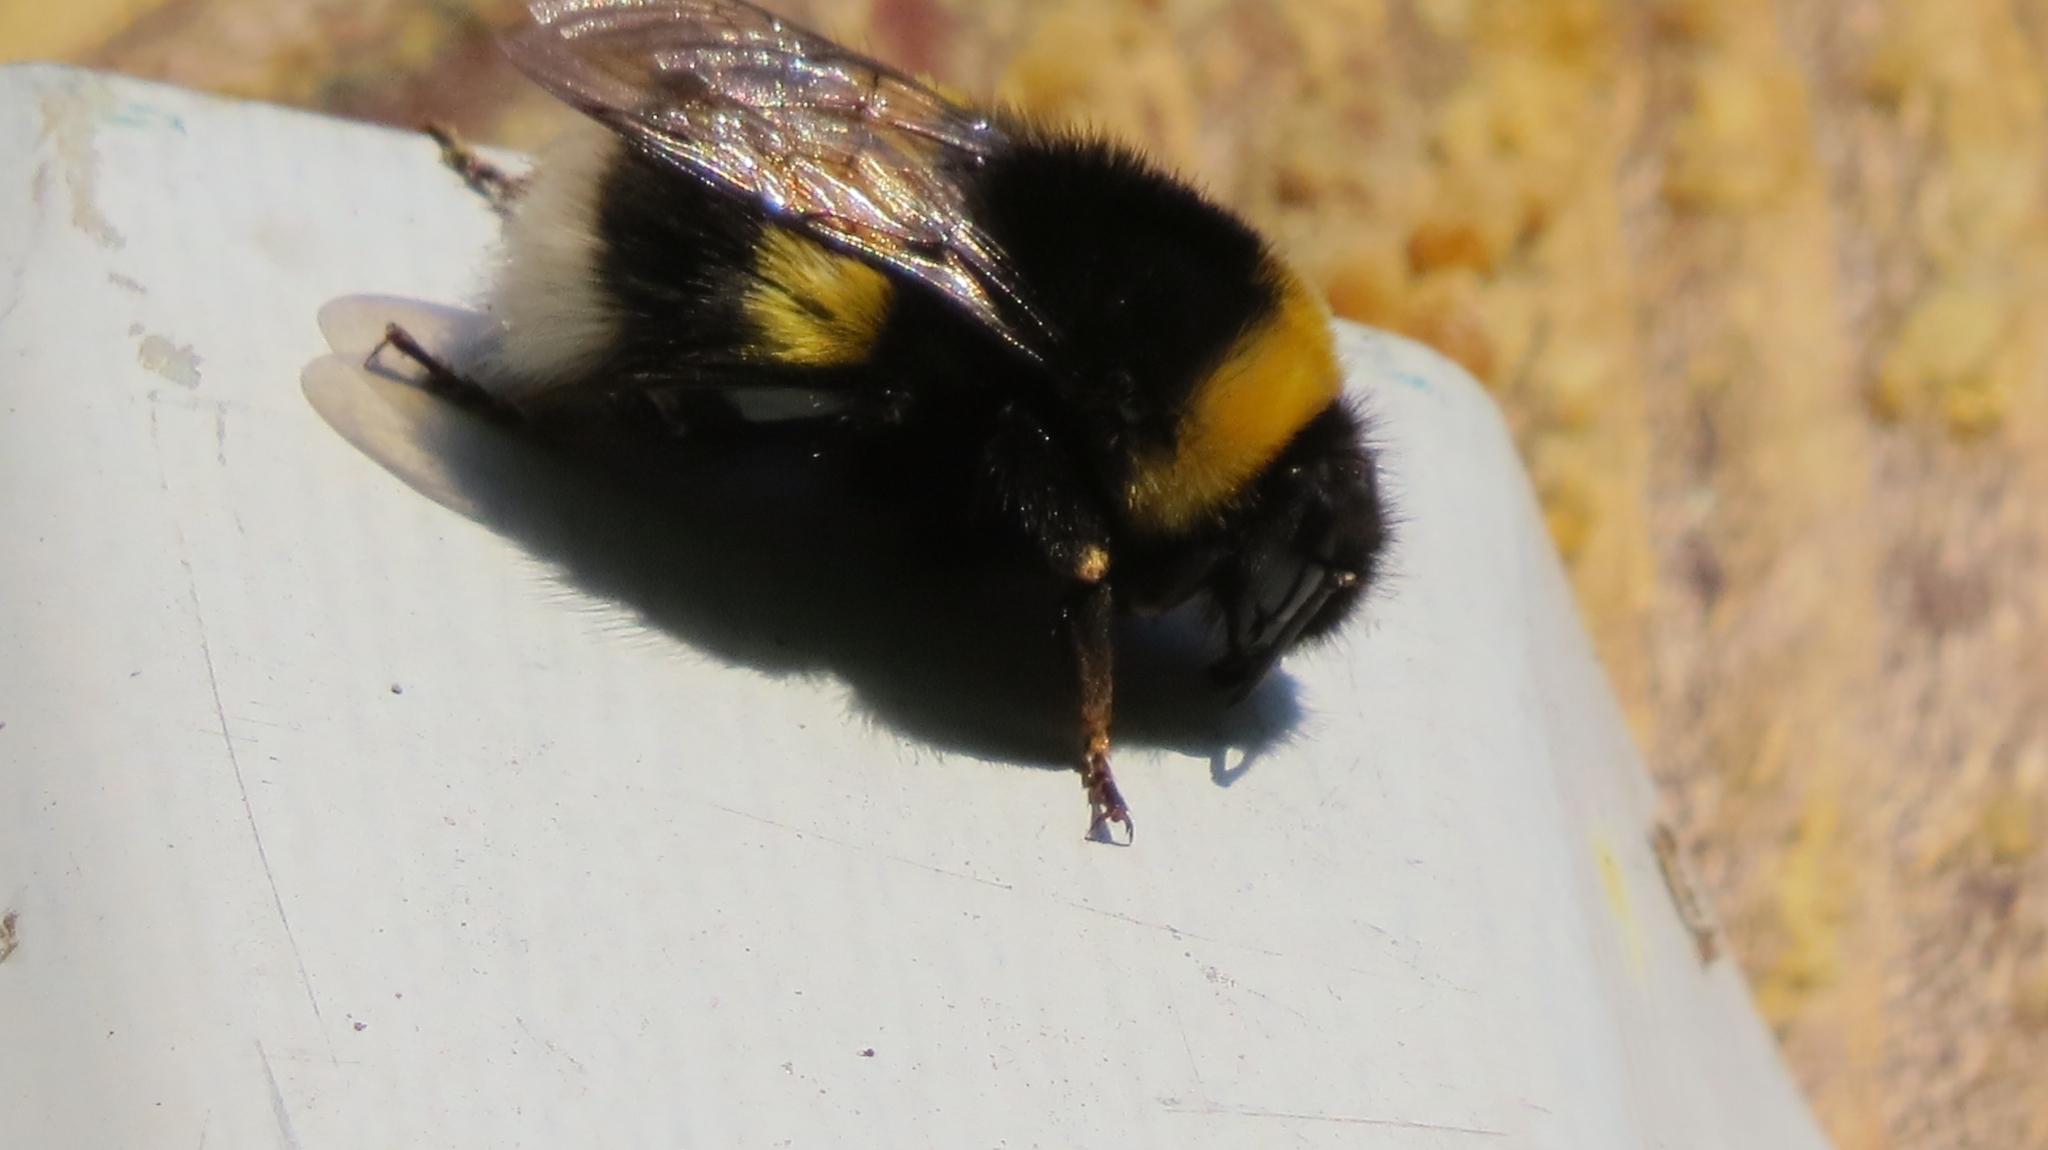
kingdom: Animalia
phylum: Arthropoda
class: Insecta
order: Hymenoptera
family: Apidae
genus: Bombus
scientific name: Bombus
